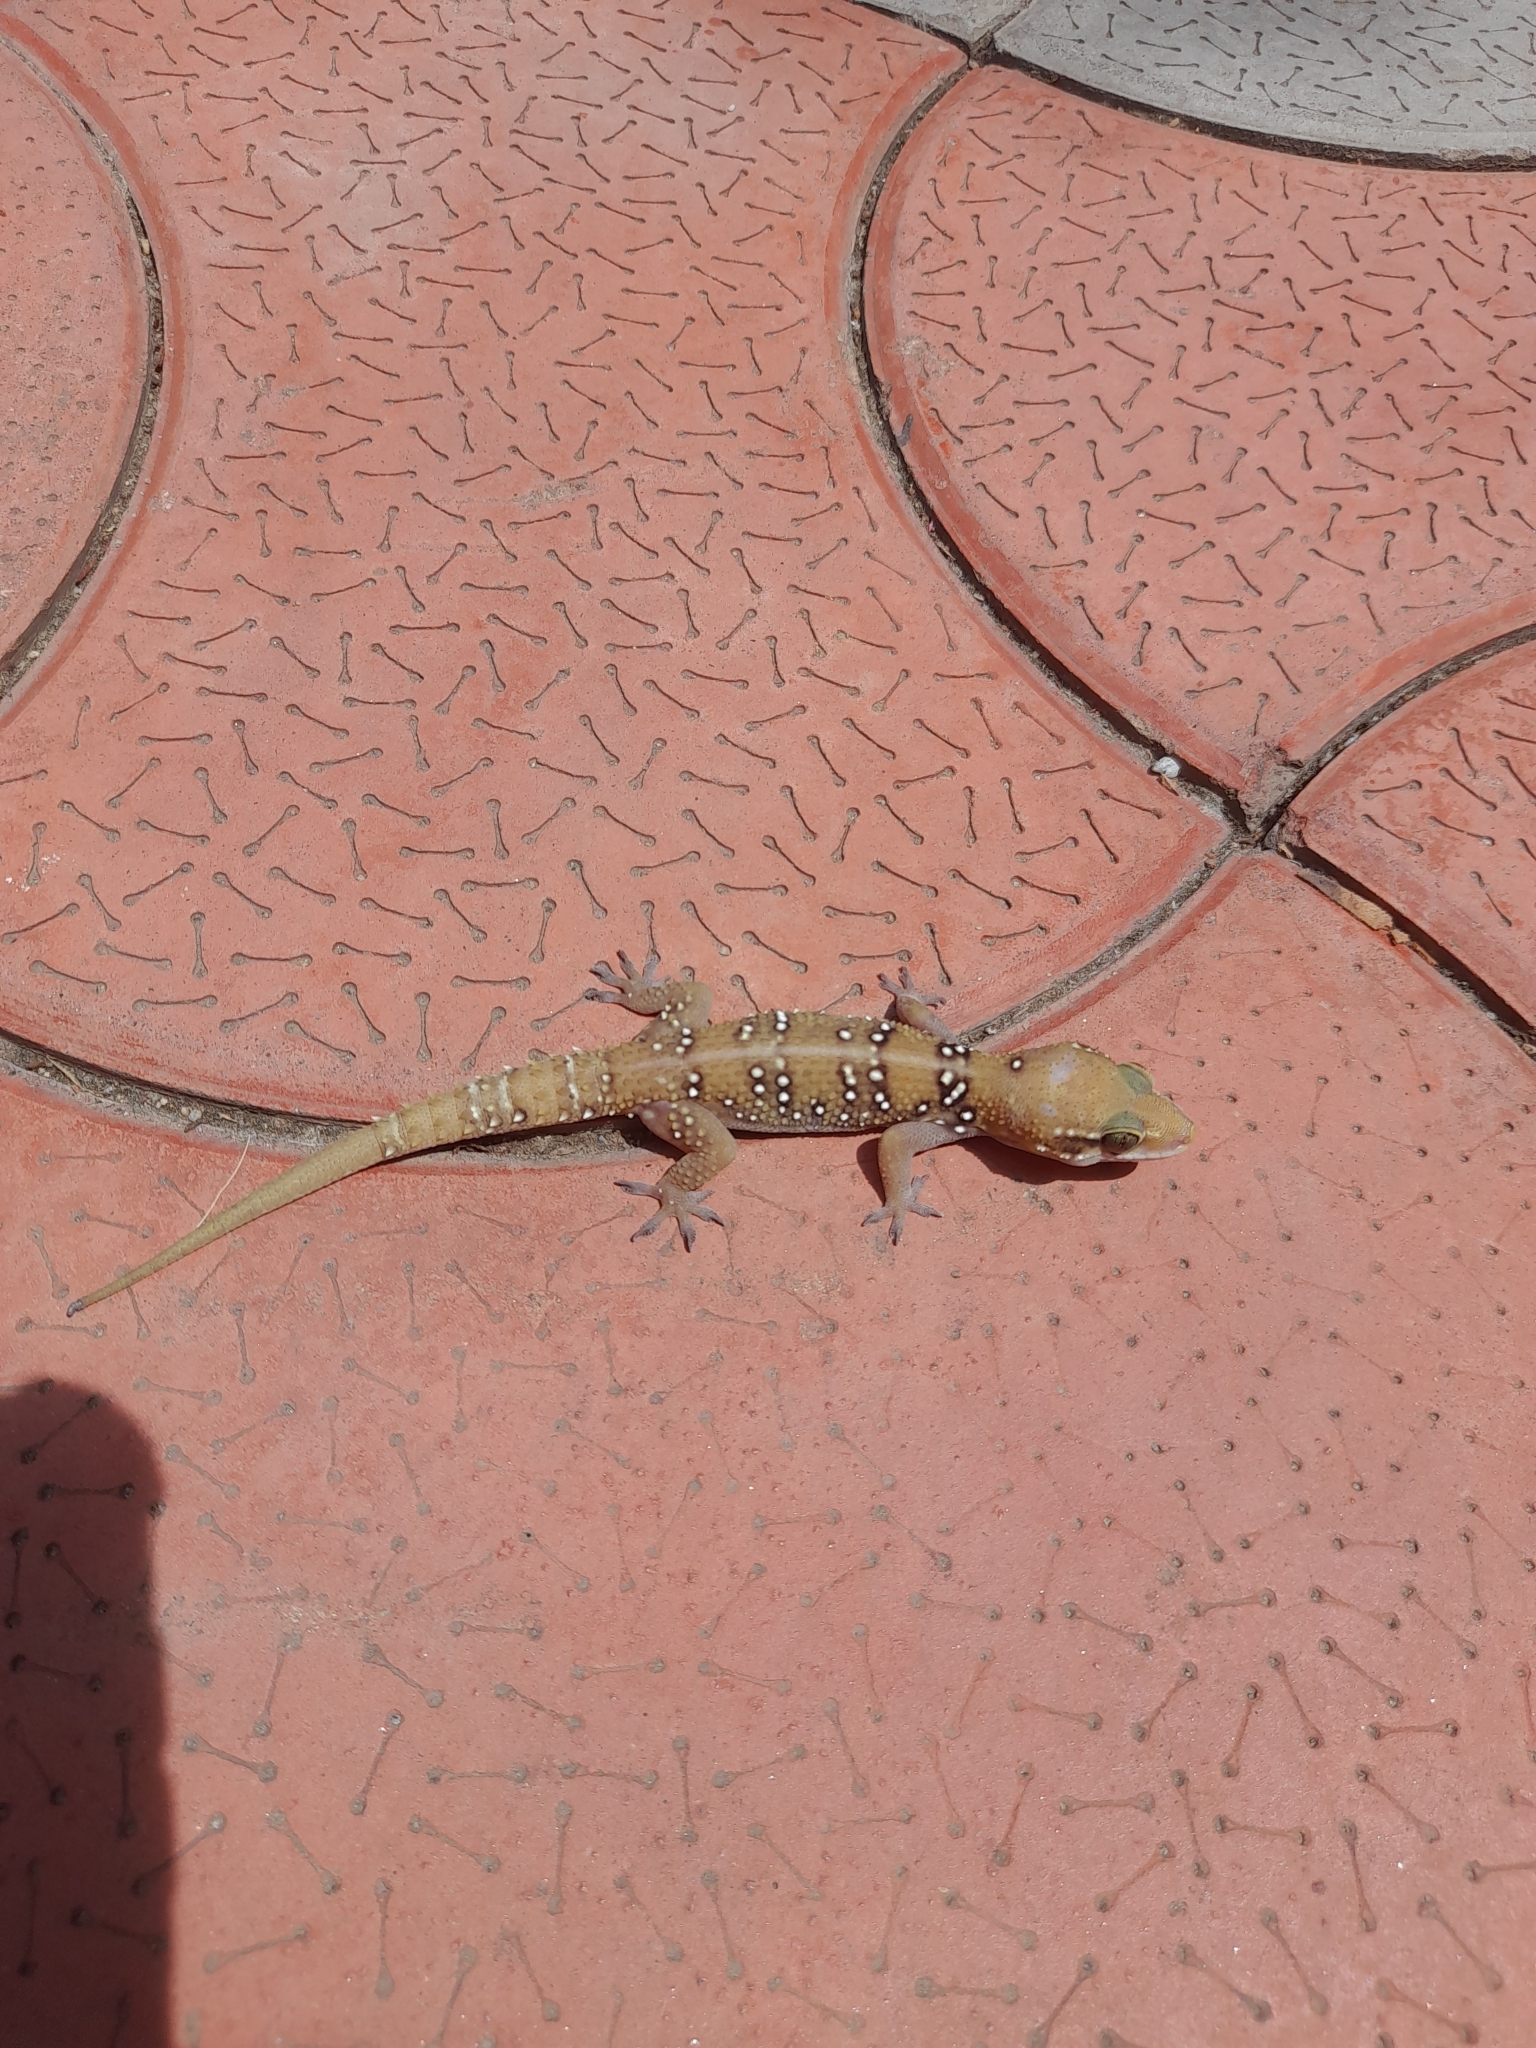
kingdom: Animalia
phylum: Chordata
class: Squamata
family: Gekkonidae
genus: Hemidactylus
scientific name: Hemidactylus whitakeri
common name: Whitaker’s termite hill gecko
